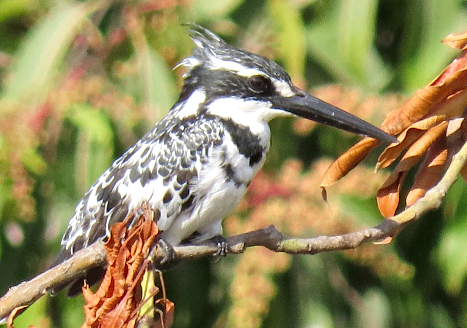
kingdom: Animalia
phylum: Chordata
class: Aves
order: Coraciiformes
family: Alcedinidae
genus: Ceryle
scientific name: Ceryle rudis
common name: Pied kingfisher
